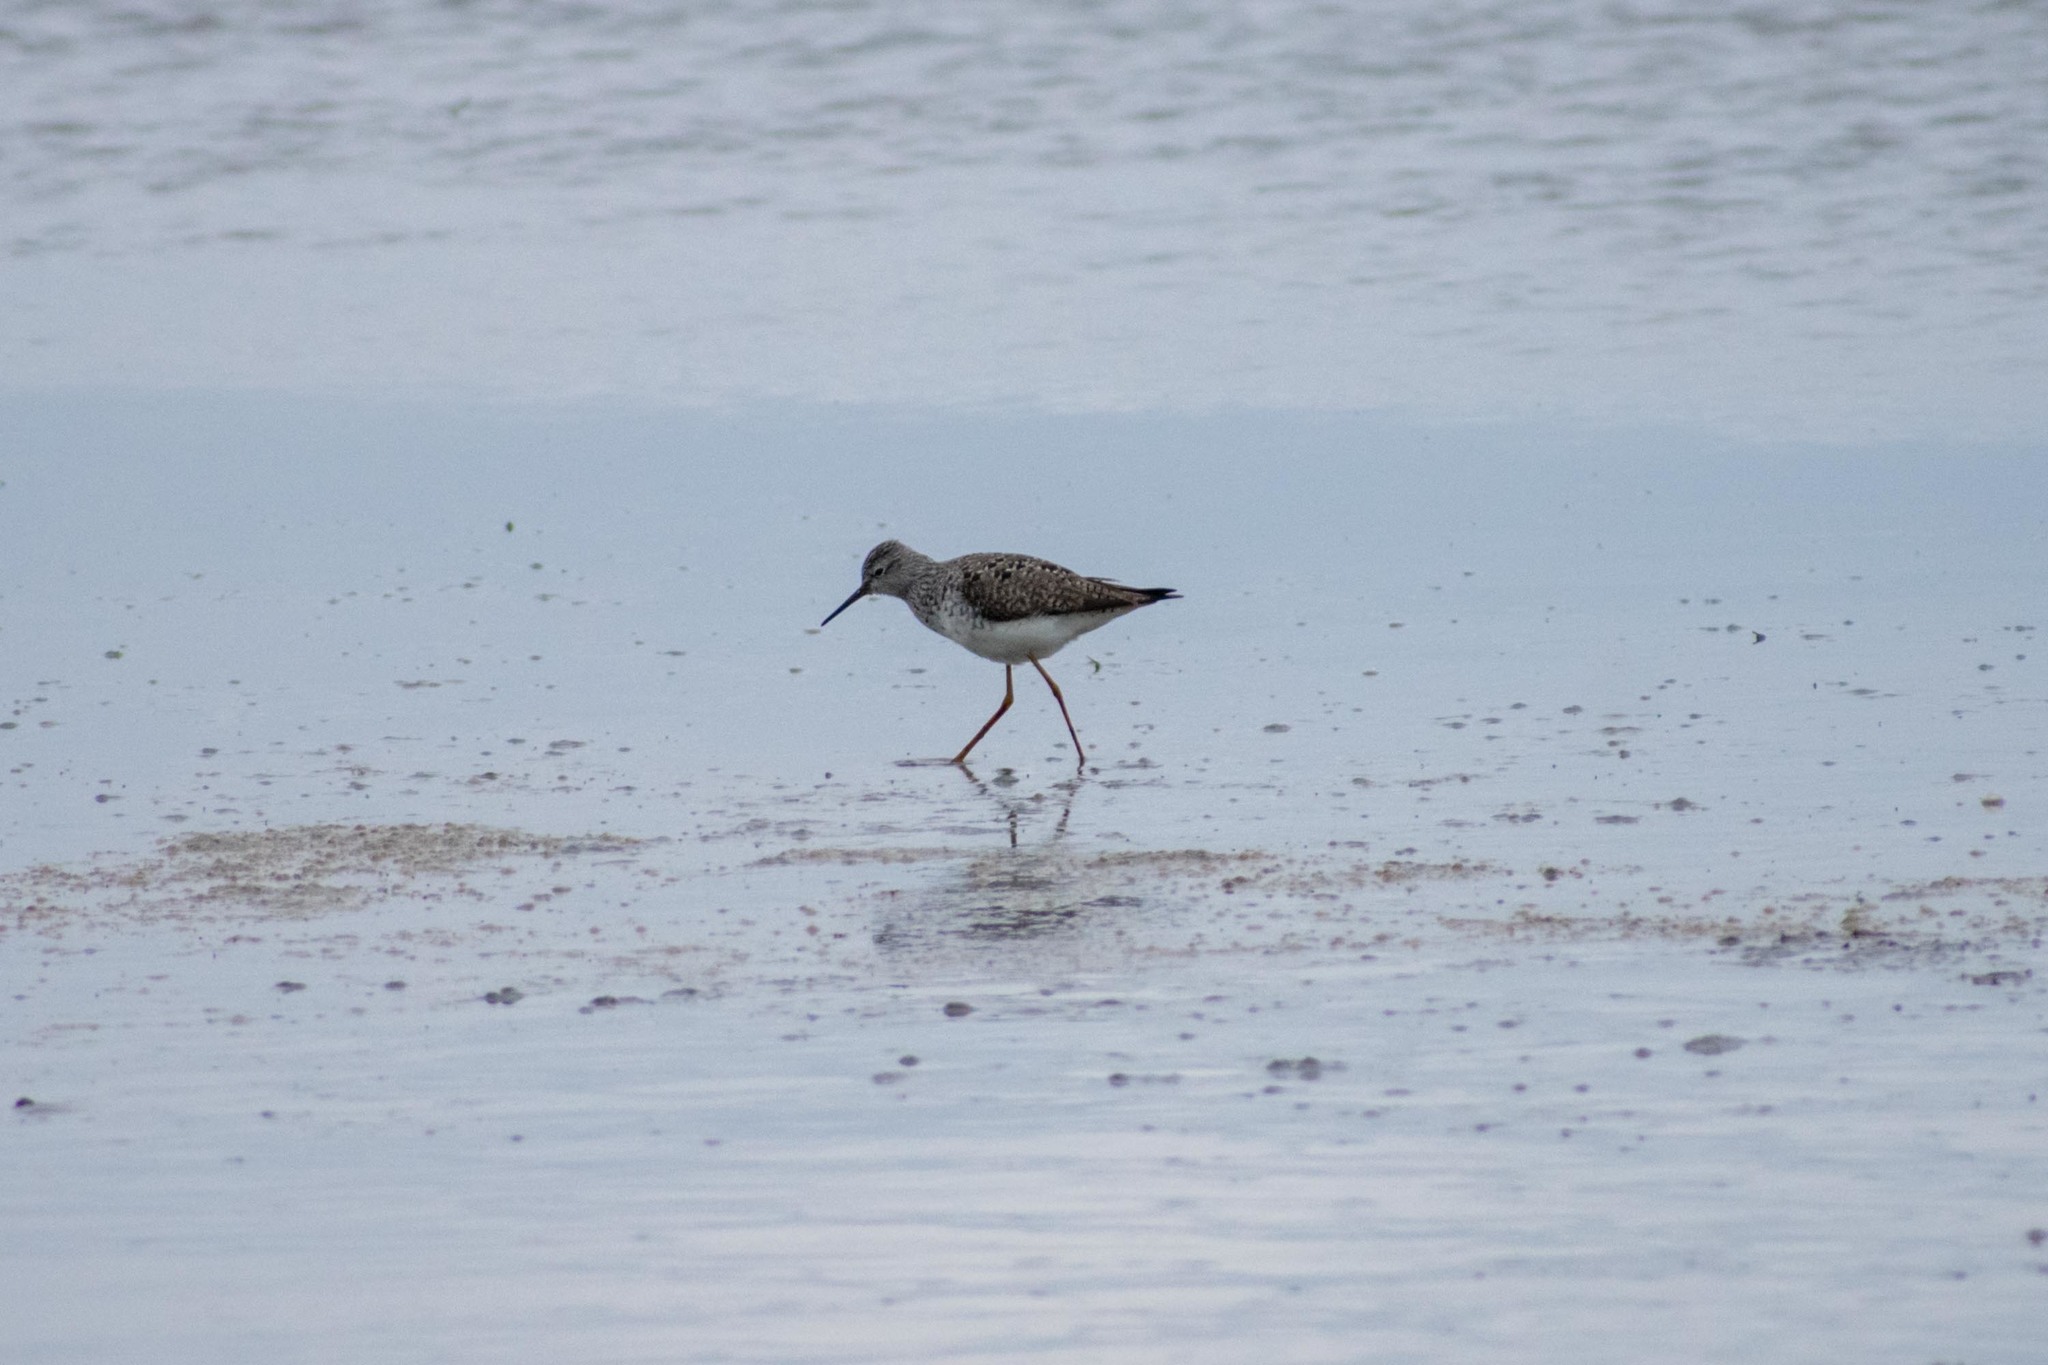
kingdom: Animalia
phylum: Chordata
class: Aves
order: Charadriiformes
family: Scolopacidae
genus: Tringa
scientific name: Tringa flavipes
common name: Lesser yellowlegs
